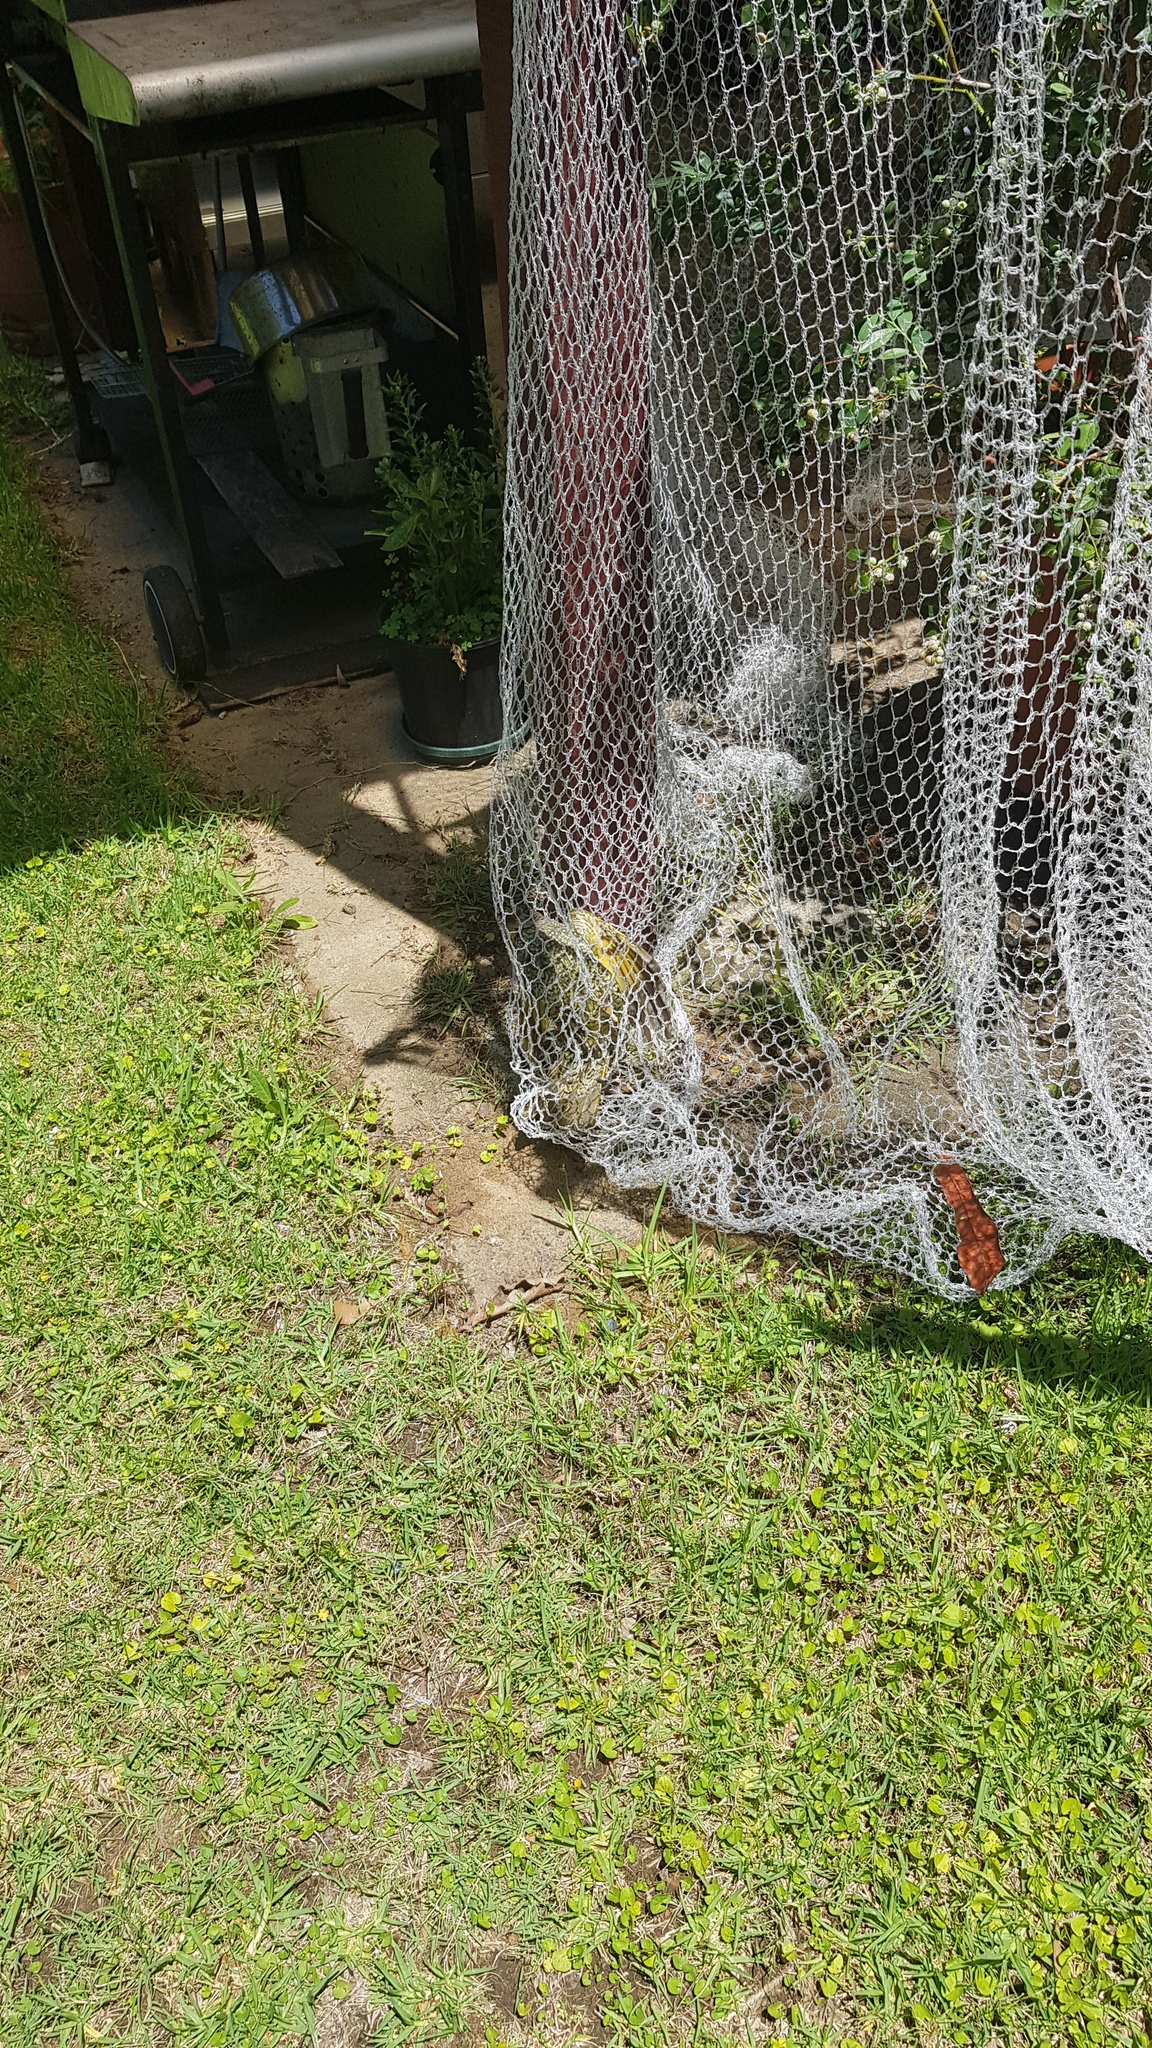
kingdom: Animalia
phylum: Chordata
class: Aves
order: Passeriformes
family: Ptilonorhynchidae
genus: Ptilonorhynchus
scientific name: Ptilonorhynchus violaceus
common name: Satin bowerbird
